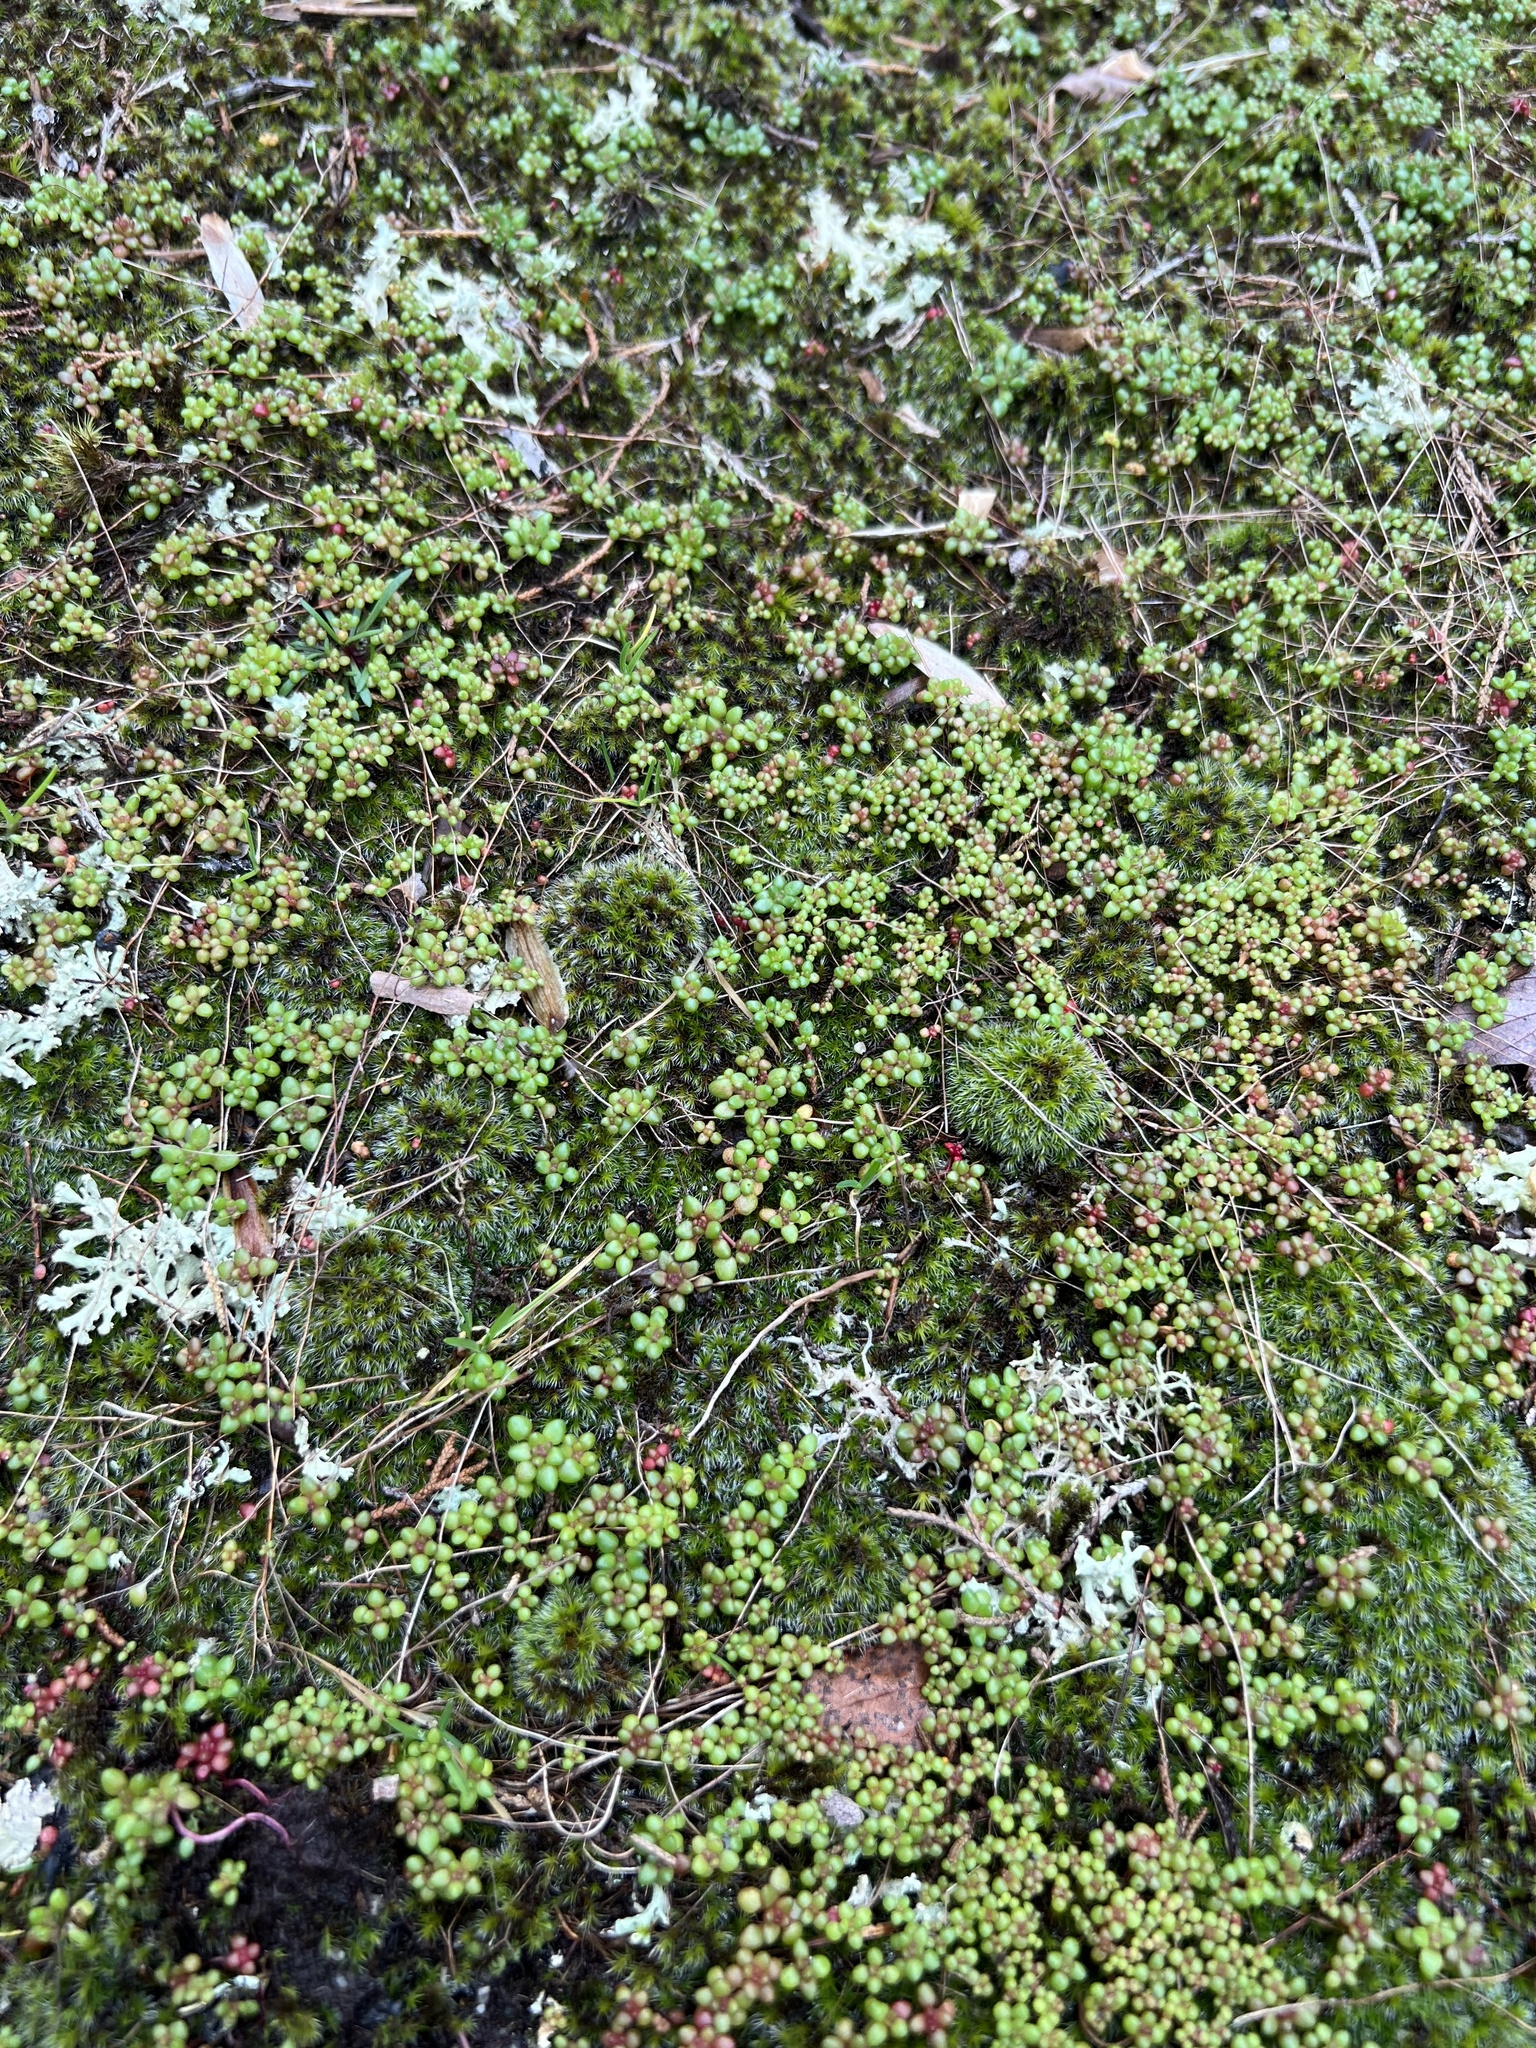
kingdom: Plantae
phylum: Tracheophyta
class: Magnoliopsida
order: Saxifragales
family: Crassulaceae
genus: Sedum
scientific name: Sedum smallii
